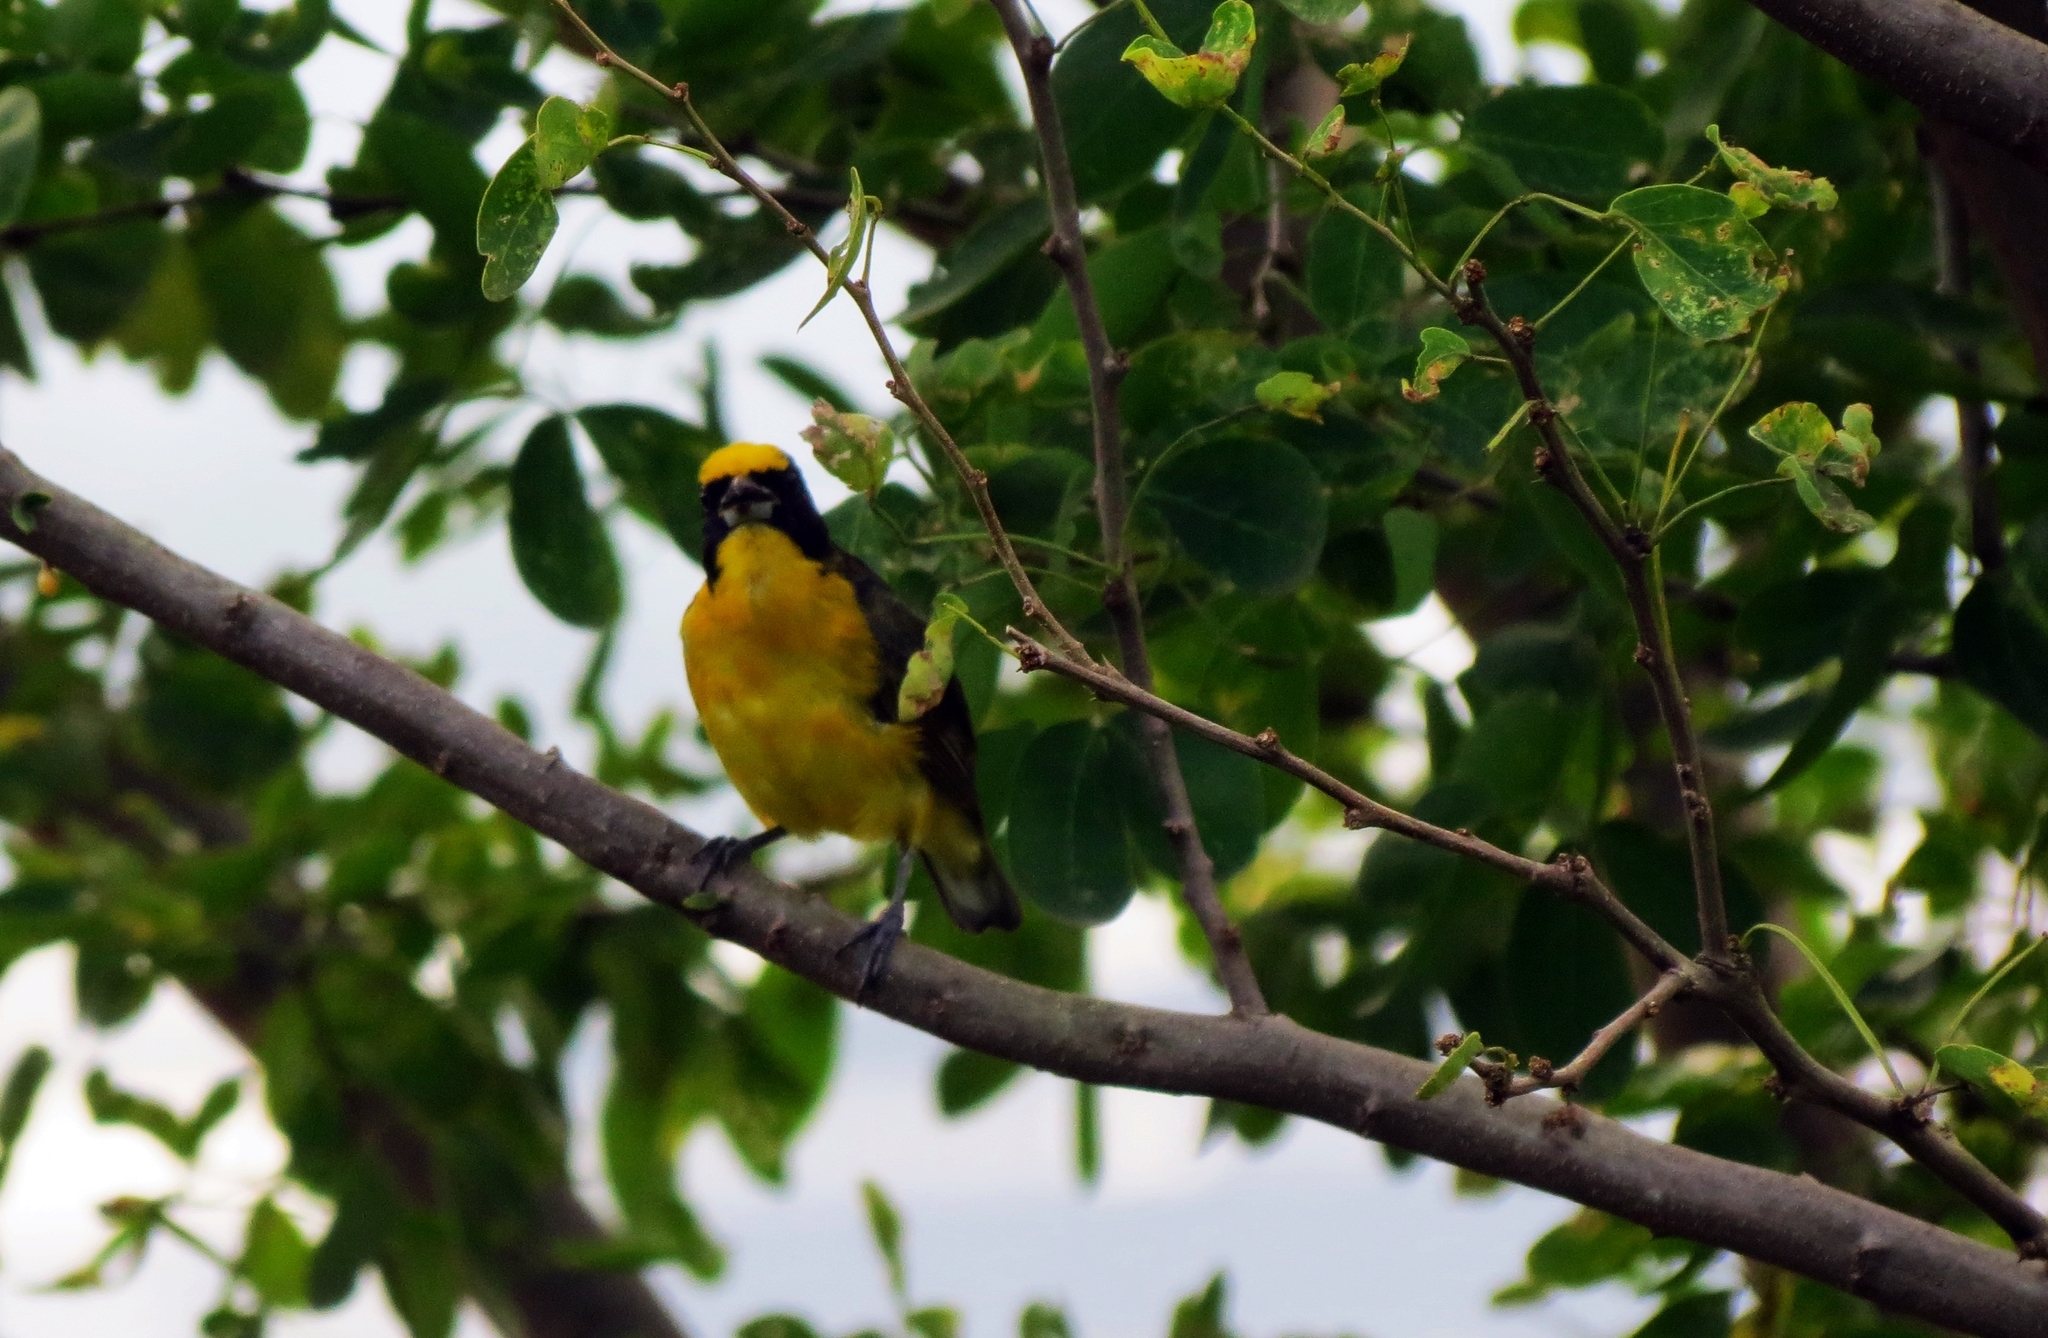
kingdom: Animalia
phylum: Chordata
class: Aves
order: Passeriformes
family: Fringillidae
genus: Euphonia
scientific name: Euphonia laniirostris
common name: Thick-billed euphonia
